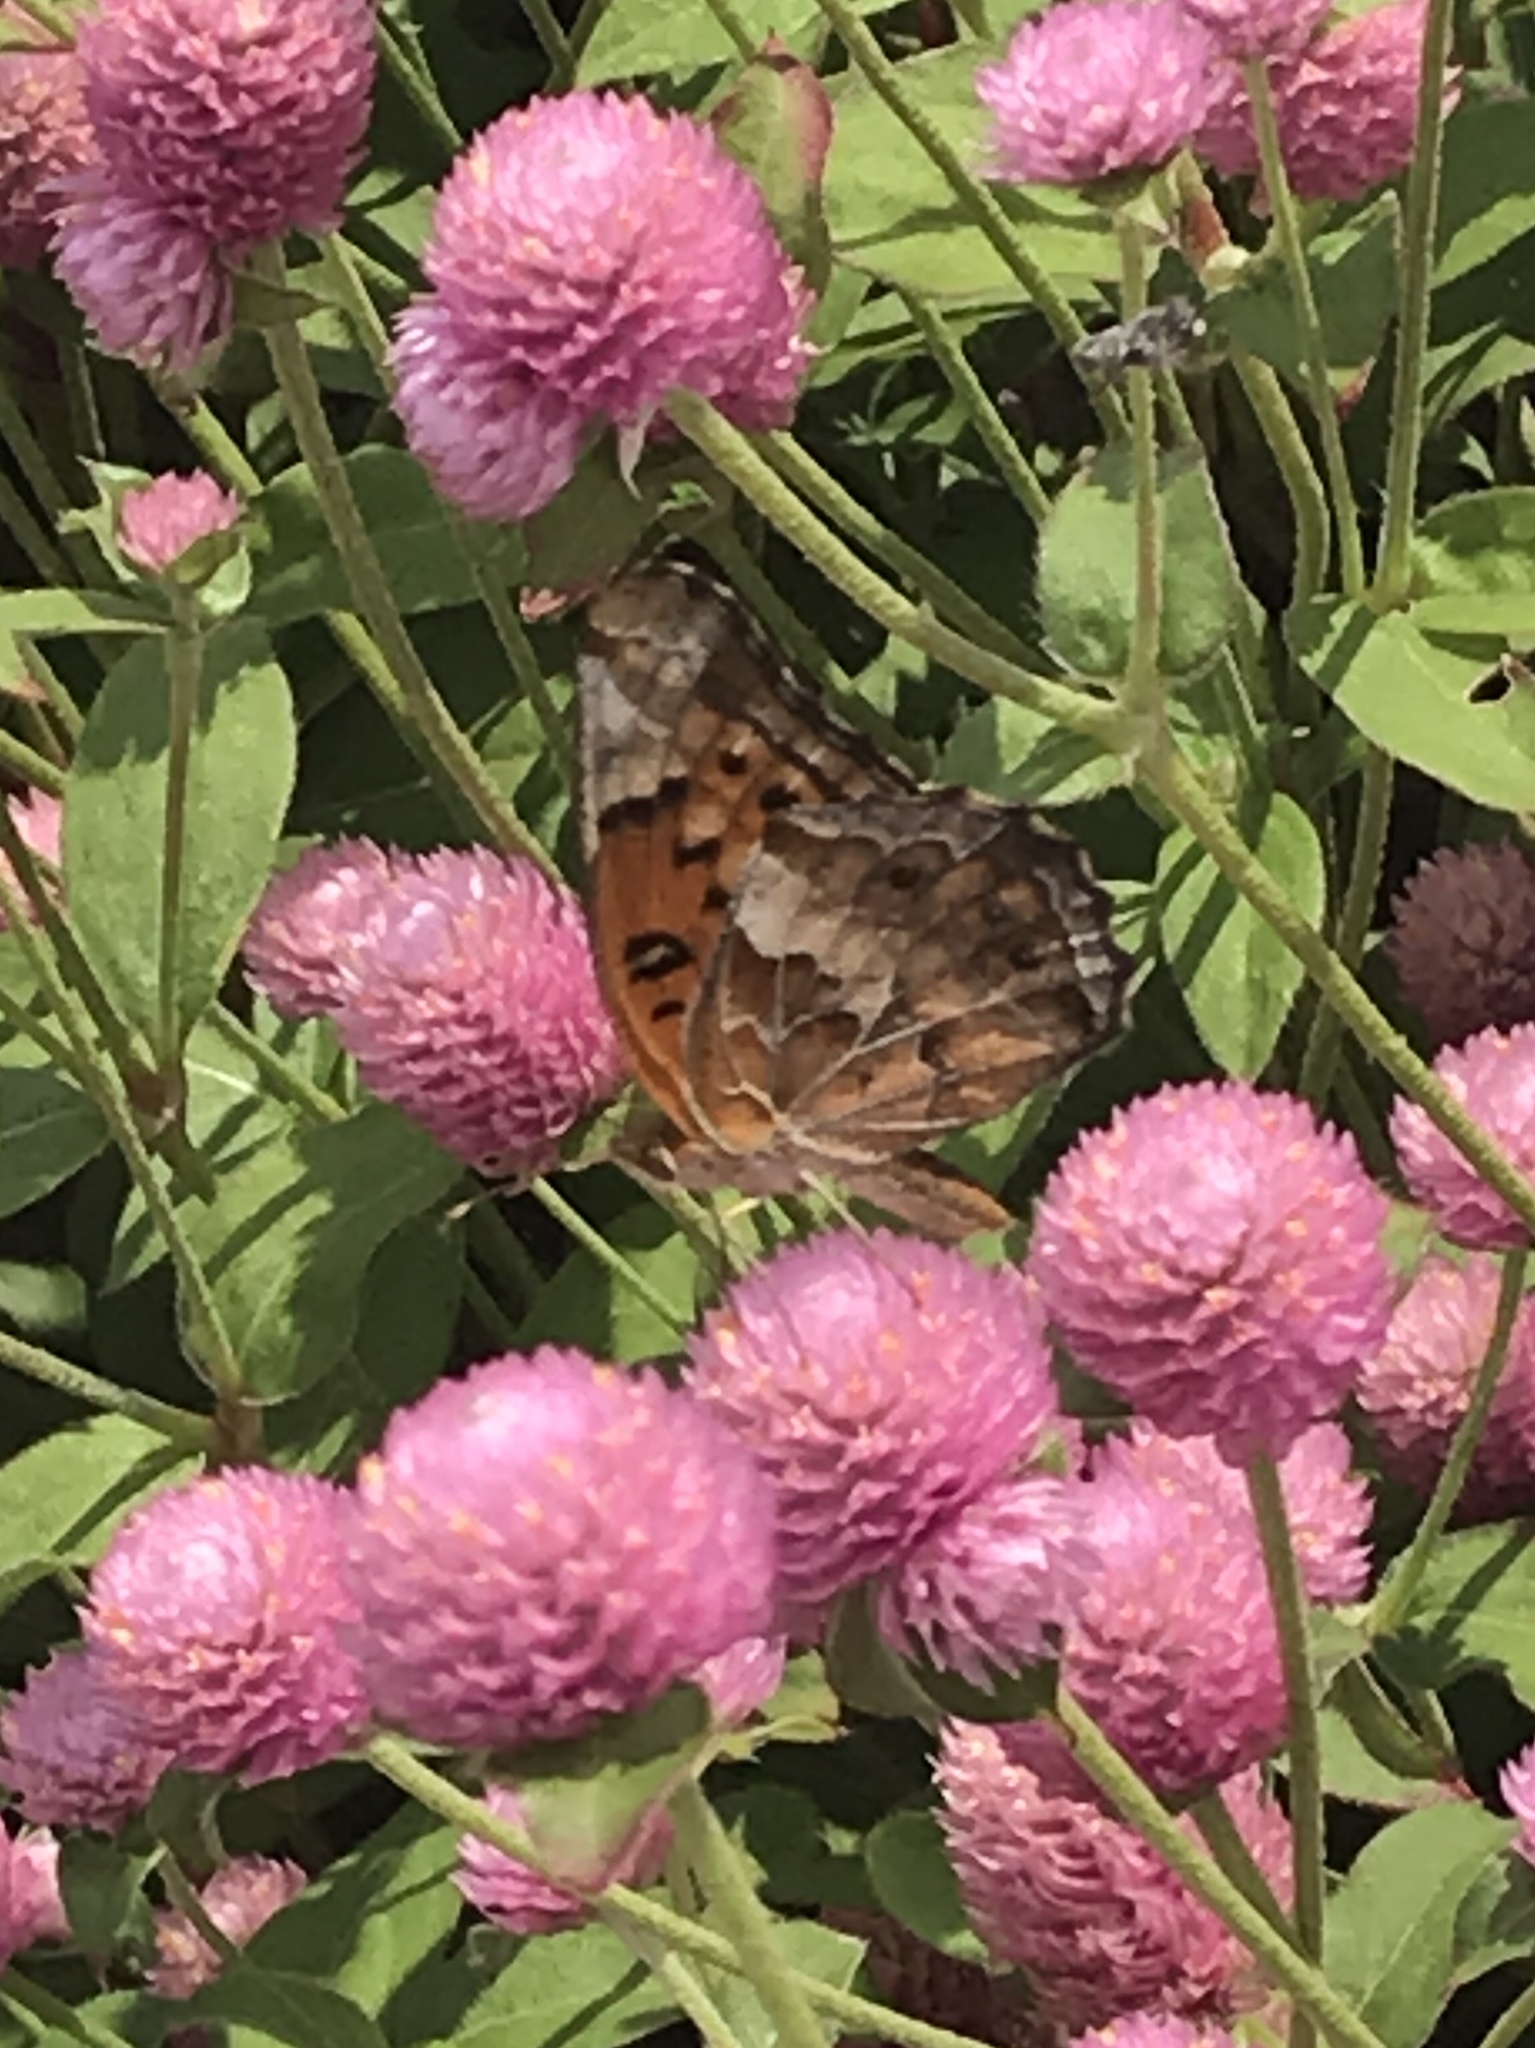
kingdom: Animalia
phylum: Arthropoda
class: Insecta
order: Lepidoptera
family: Nymphalidae
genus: Euptoieta
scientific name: Euptoieta claudia
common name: Variegated fritillary
